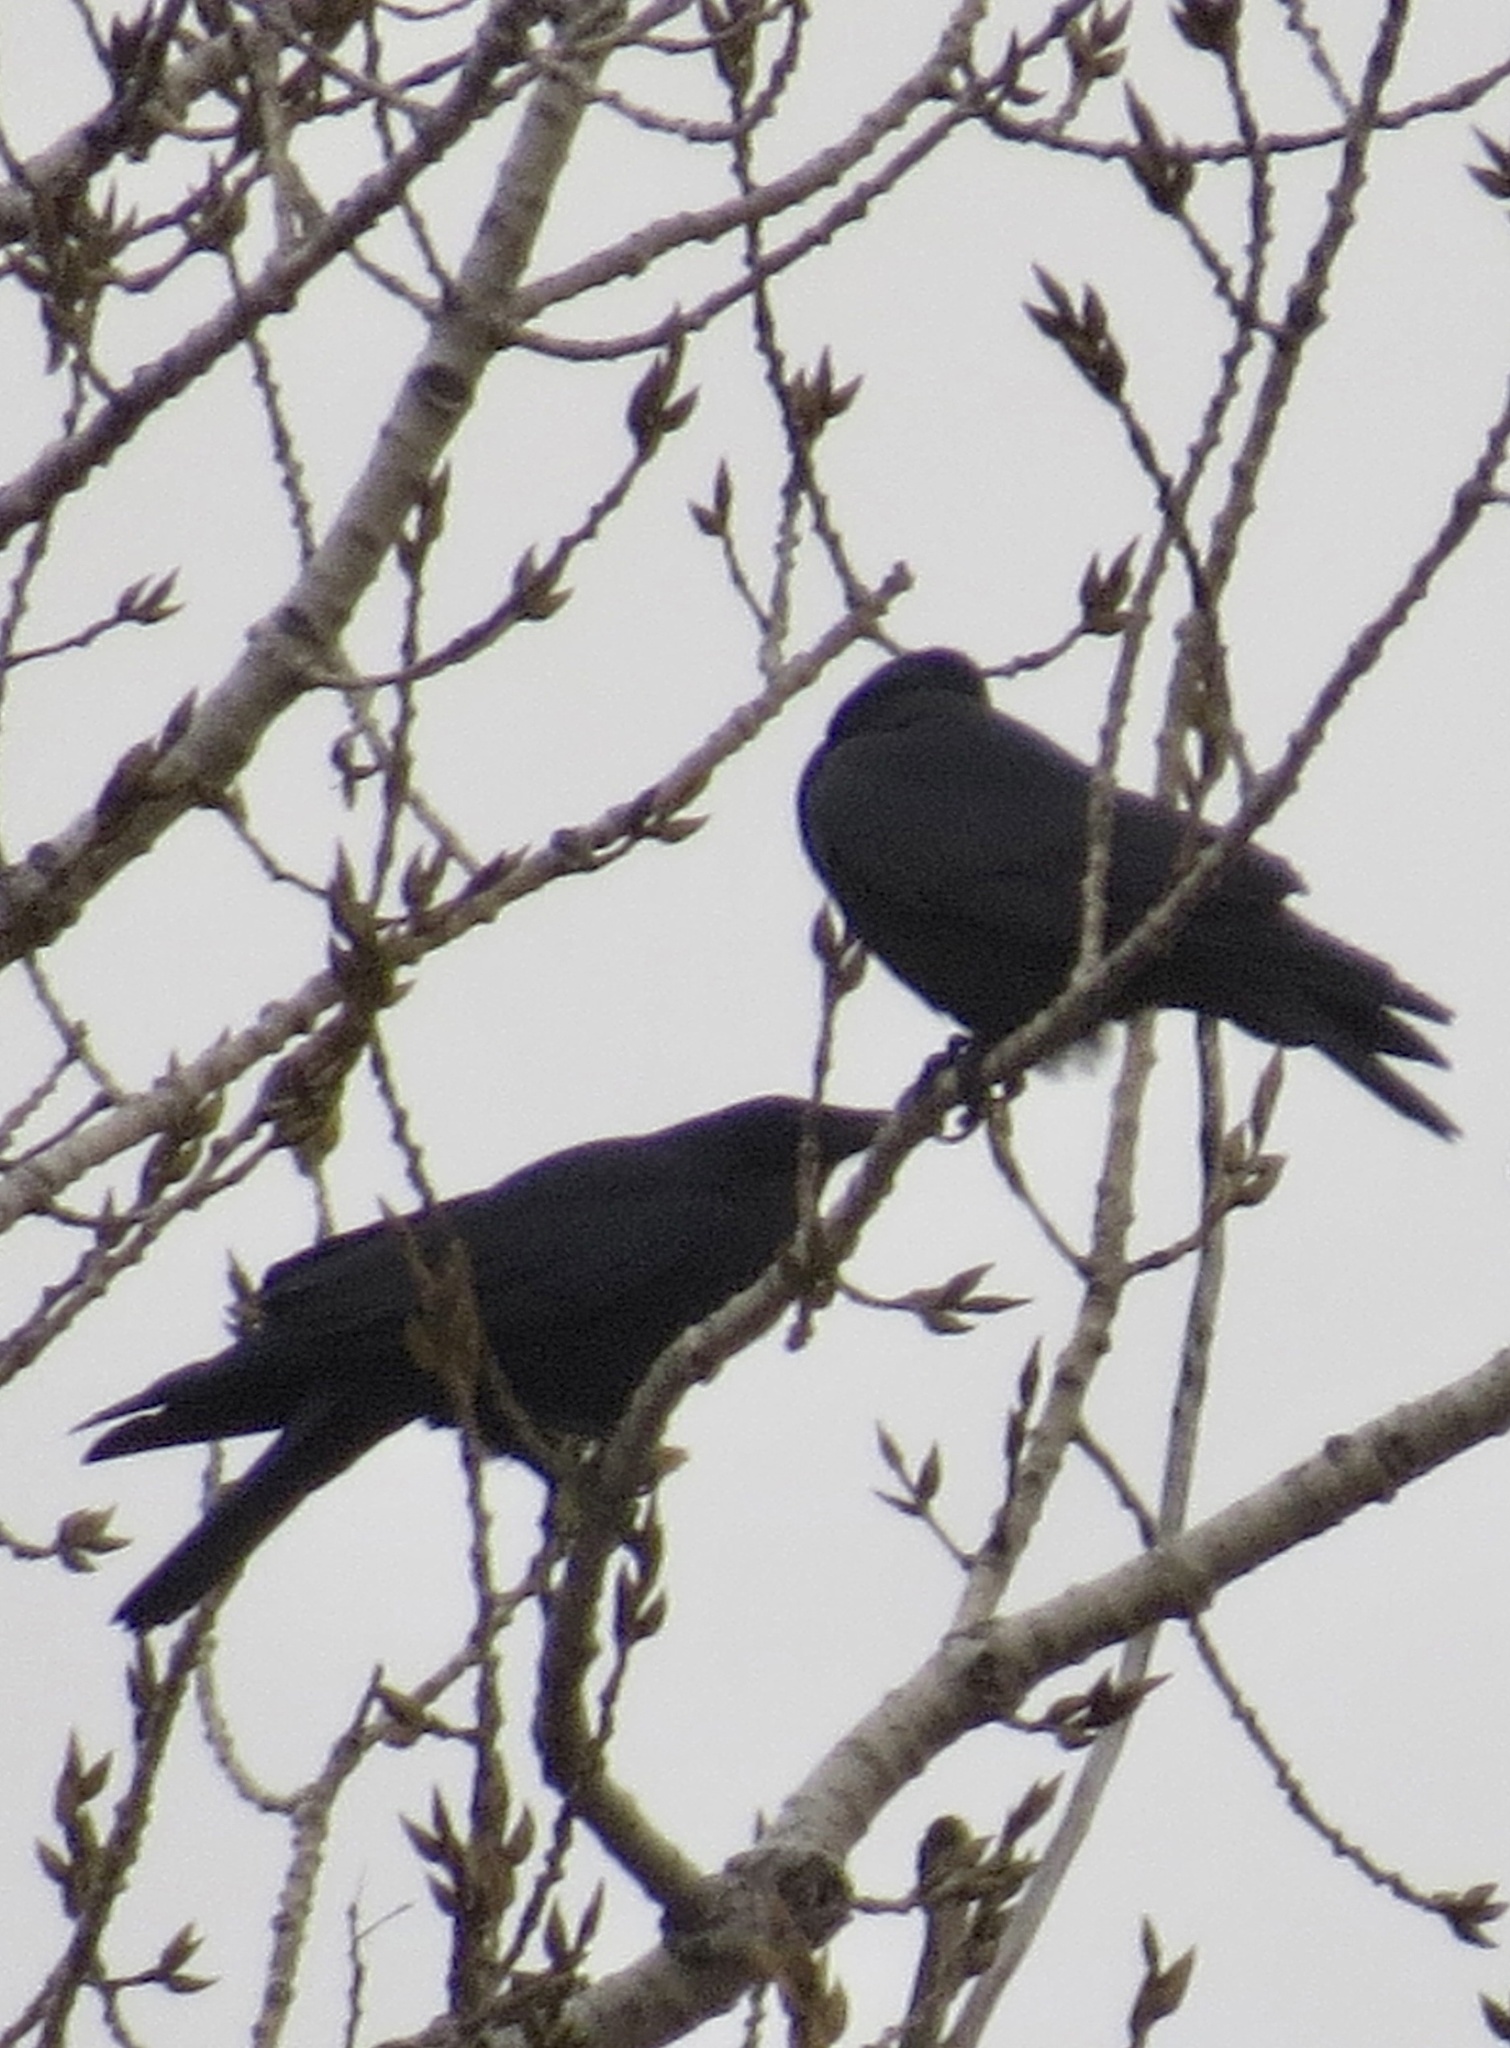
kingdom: Animalia
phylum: Chordata
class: Aves
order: Passeriformes
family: Corvidae
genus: Corvus
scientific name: Corvus
